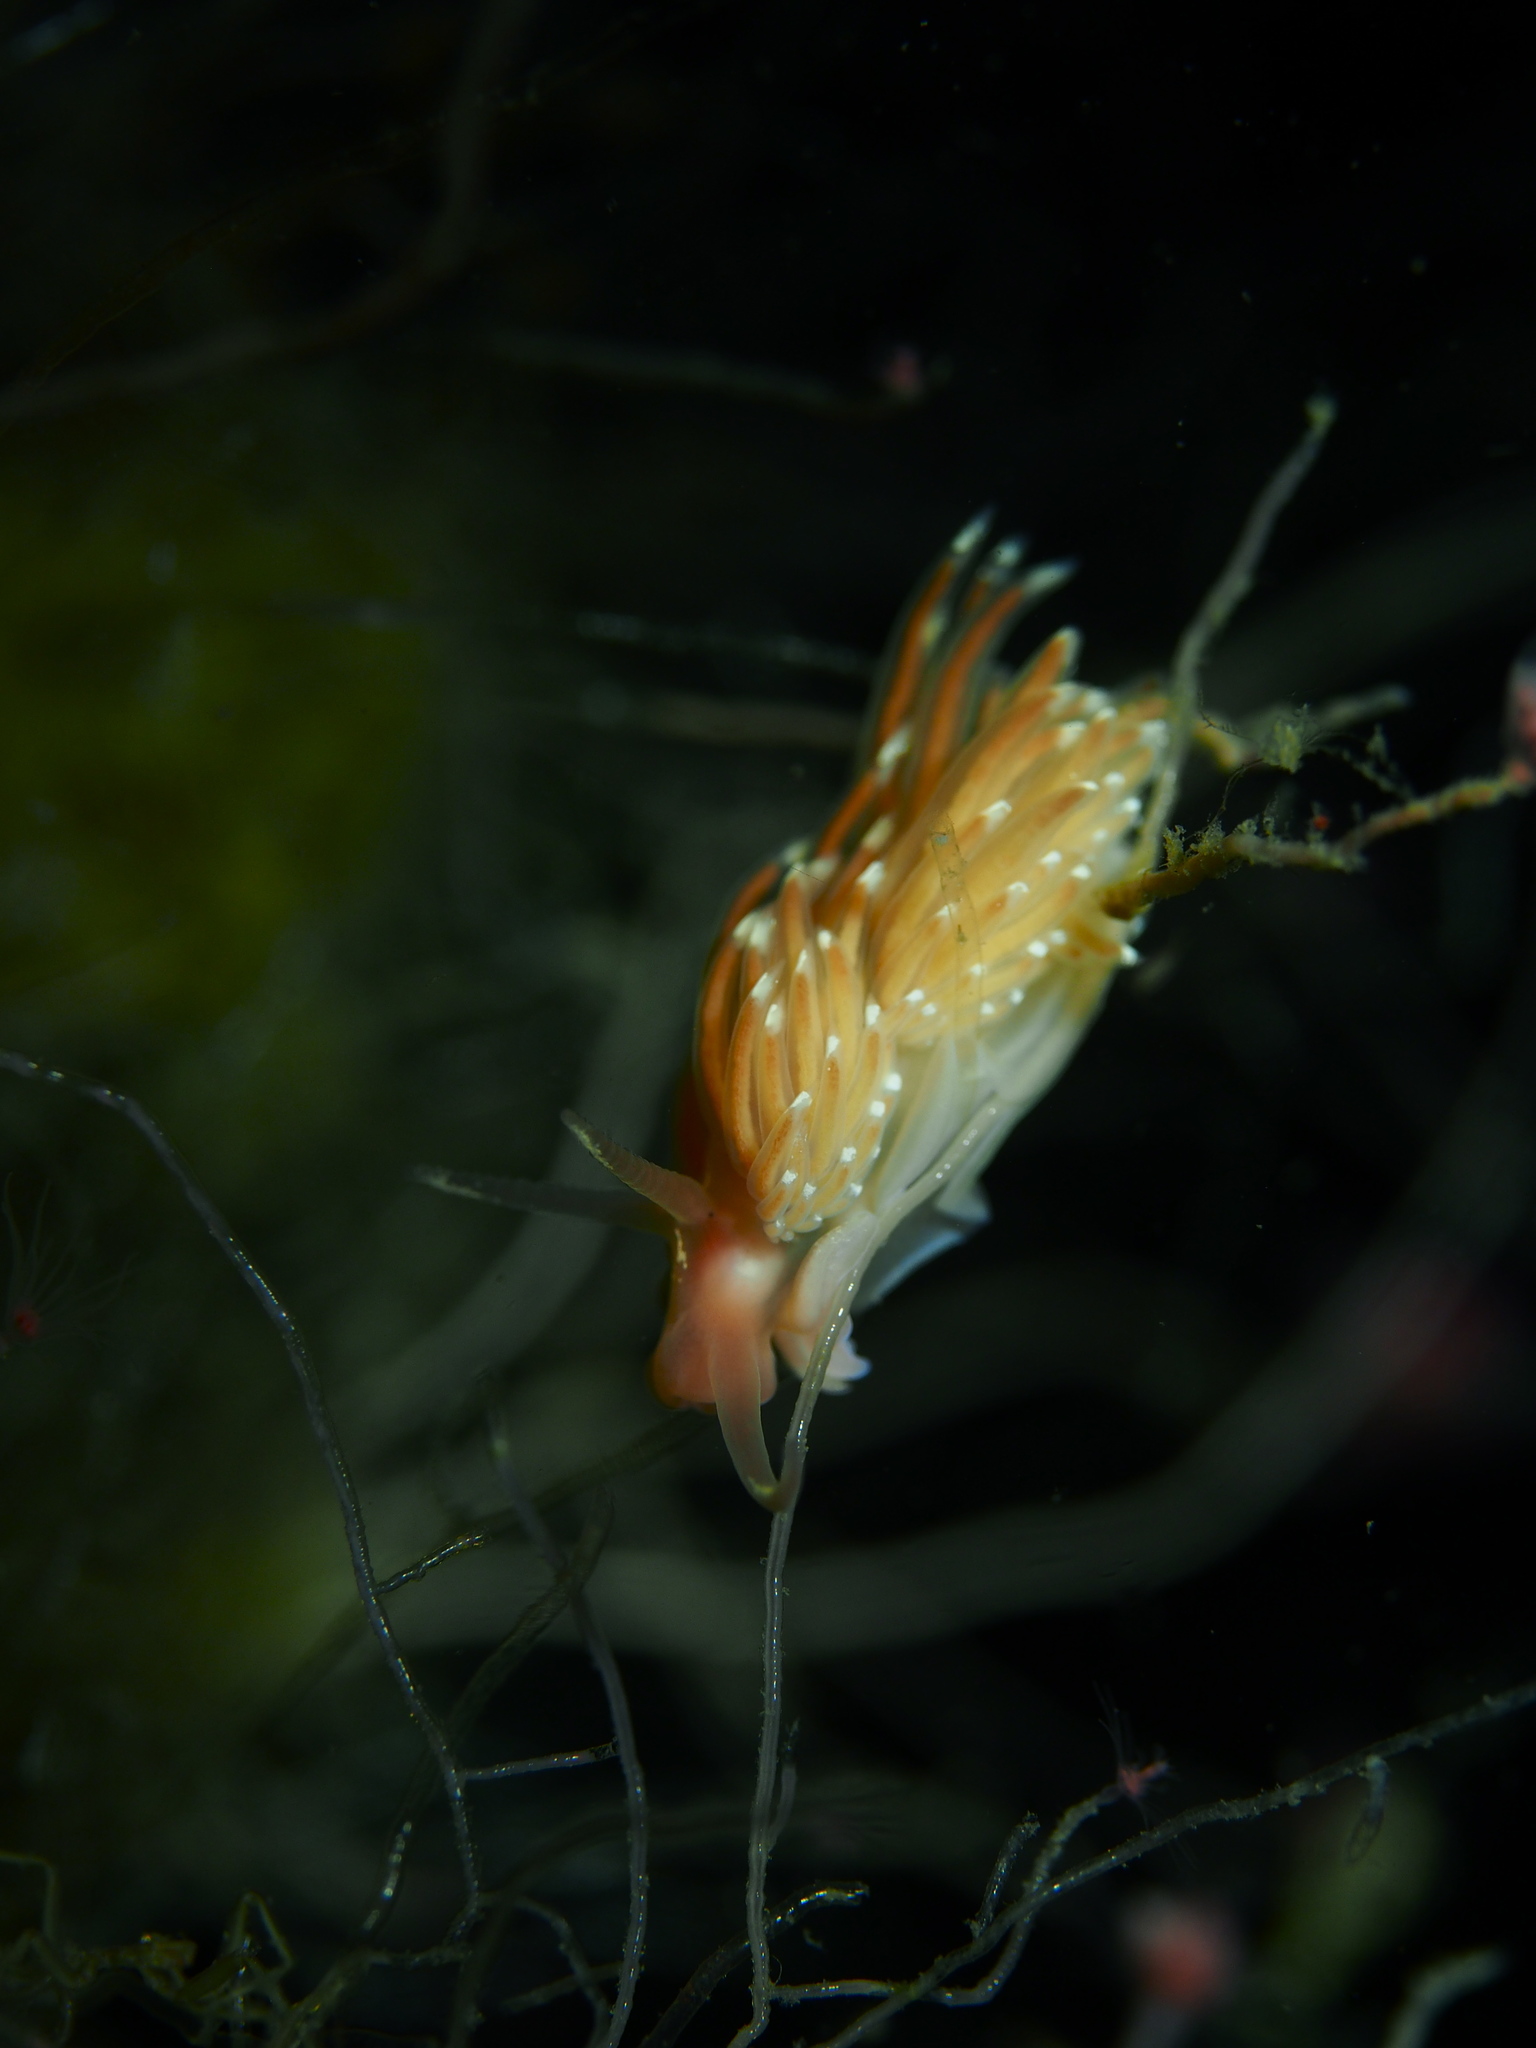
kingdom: Animalia
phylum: Mollusca
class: Gastropoda
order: Nudibranchia
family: Facelinidae
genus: Facelina
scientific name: Facelina bostoniensis
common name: Boston facelina
